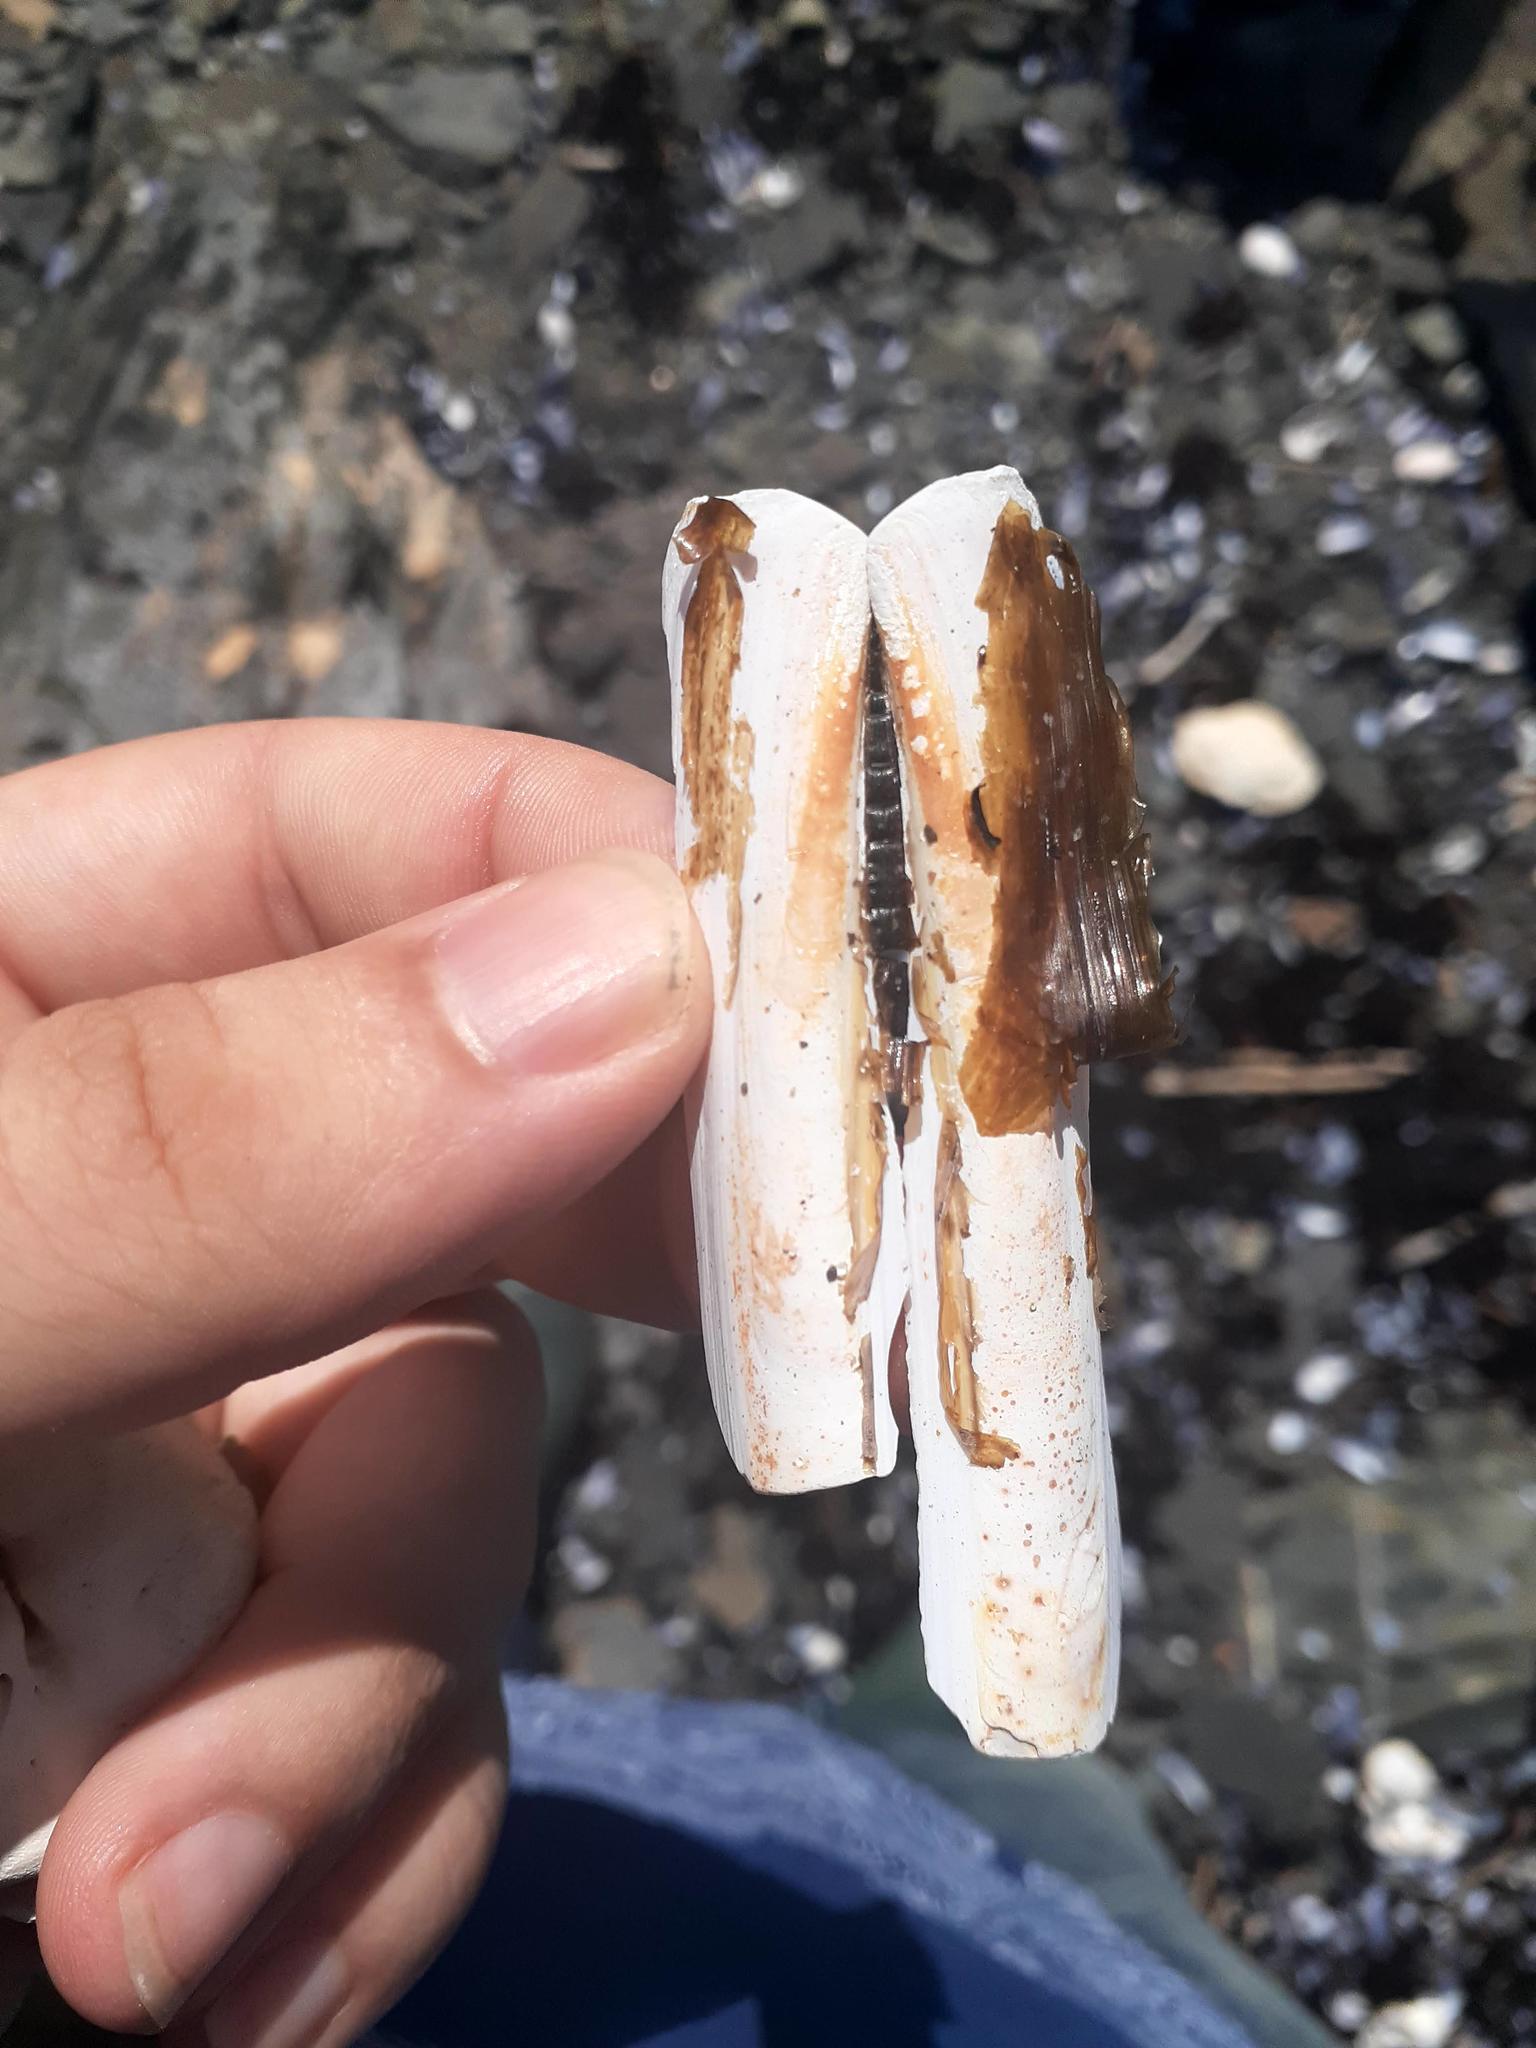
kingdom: Animalia
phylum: Mollusca
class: Bivalvia
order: Adapedonta
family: Pharidae
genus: Ensis
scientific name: Ensis leei
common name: American jack knife clam
